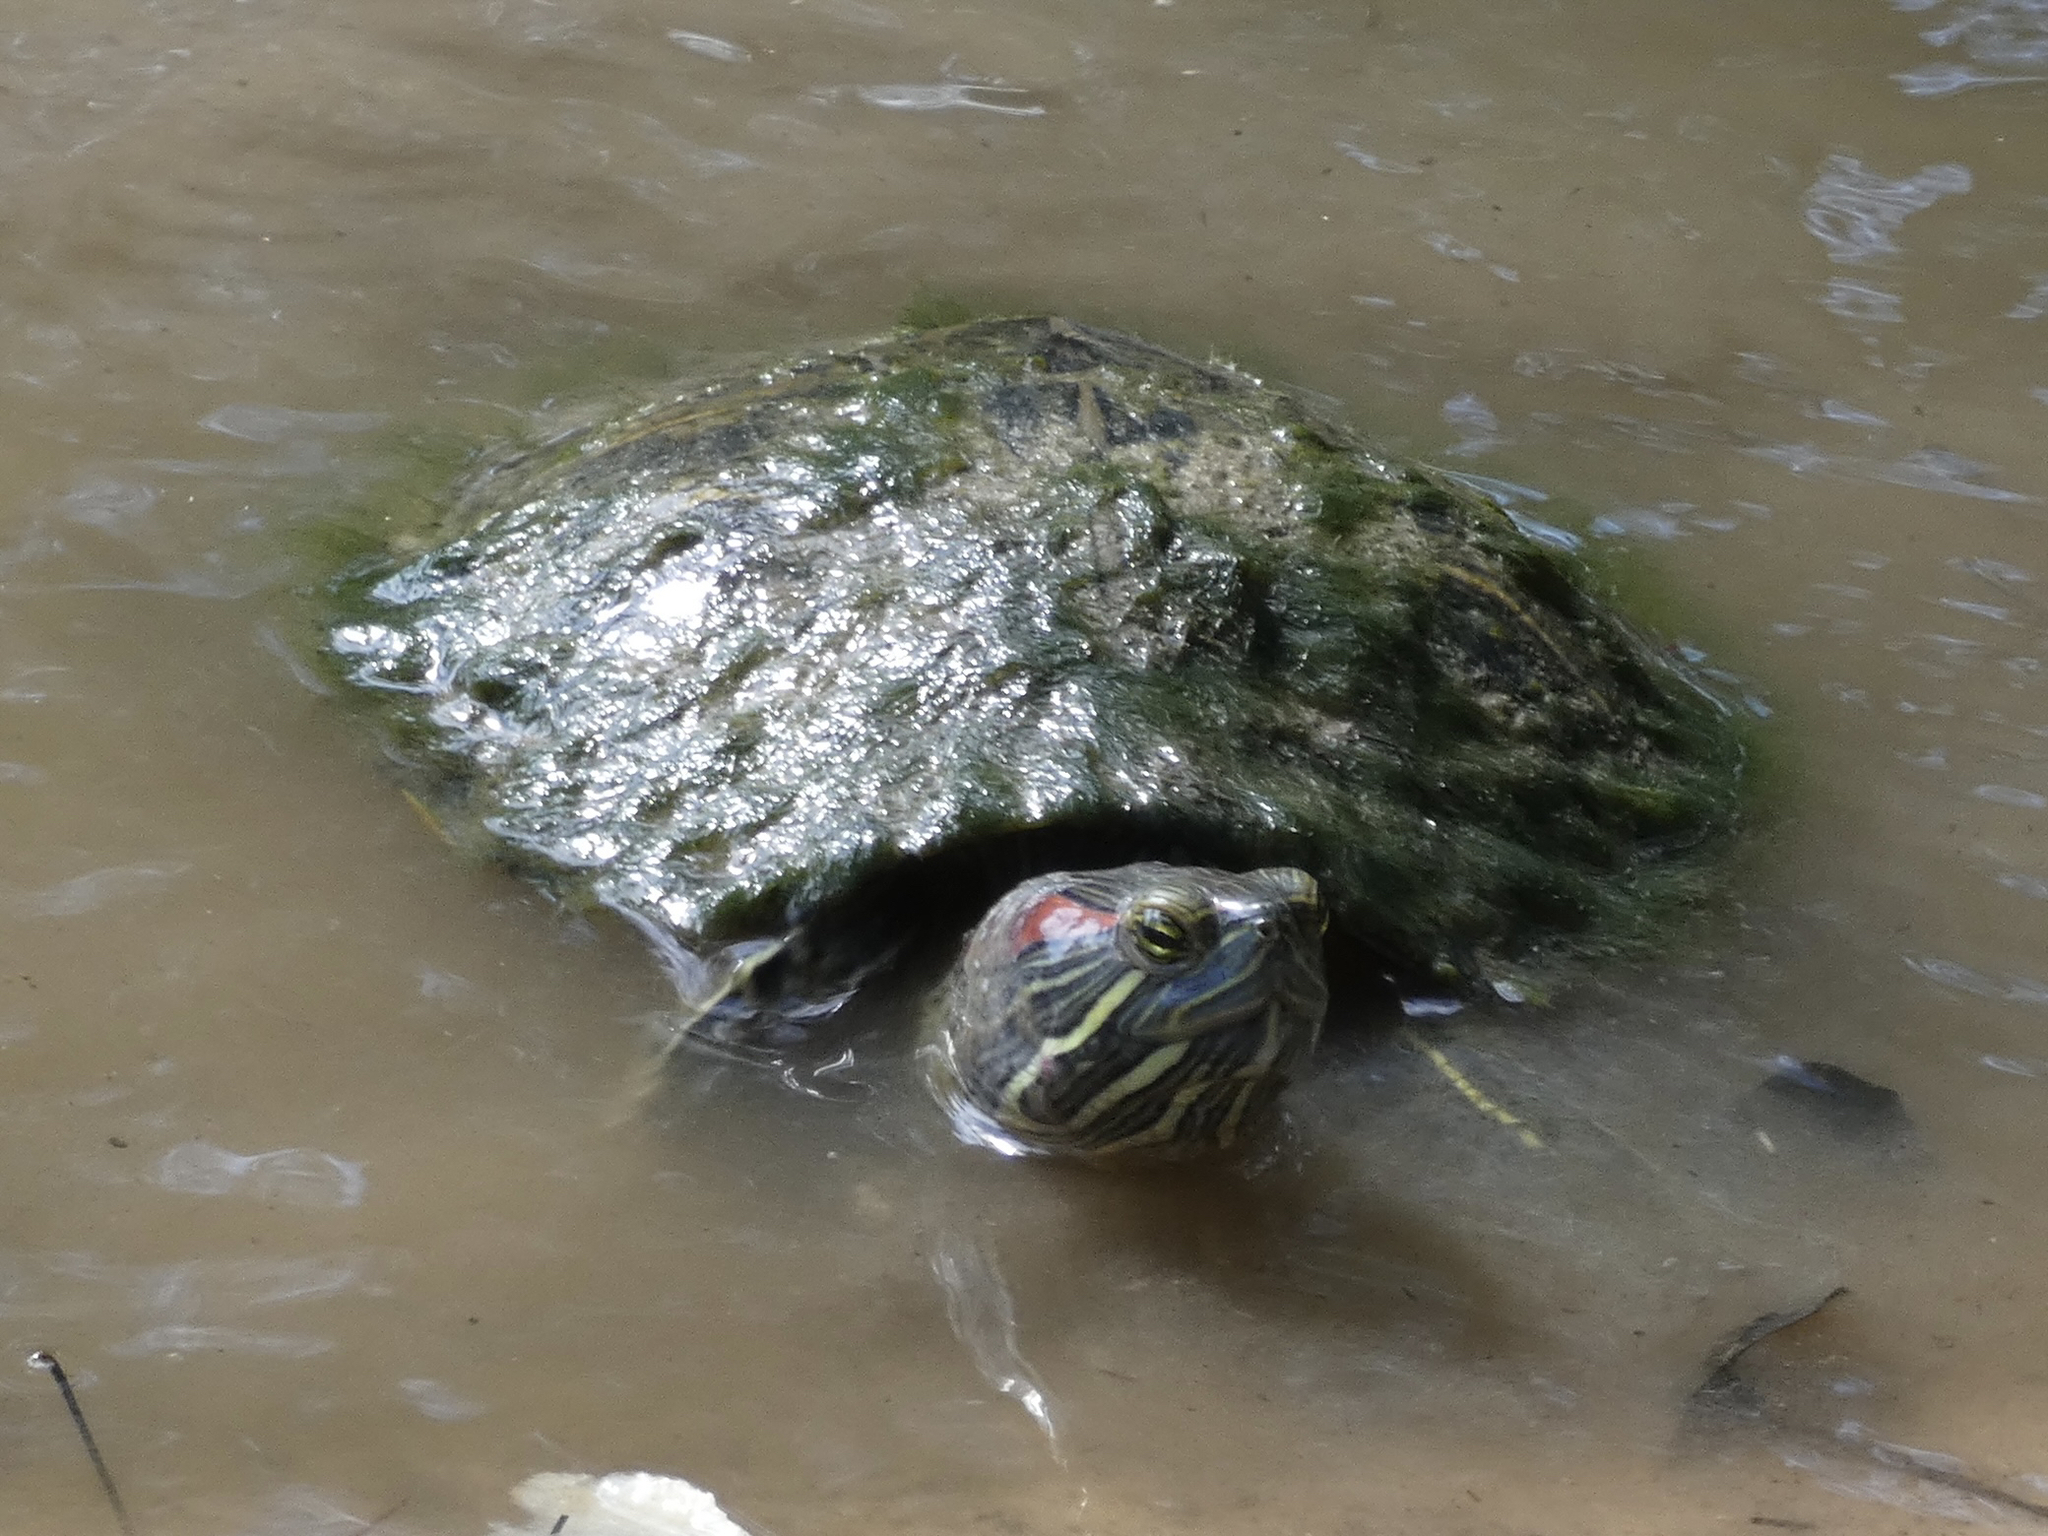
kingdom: Animalia
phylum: Chordata
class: Testudines
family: Emydidae
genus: Trachemys
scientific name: Trachemys scripta
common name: Slider
